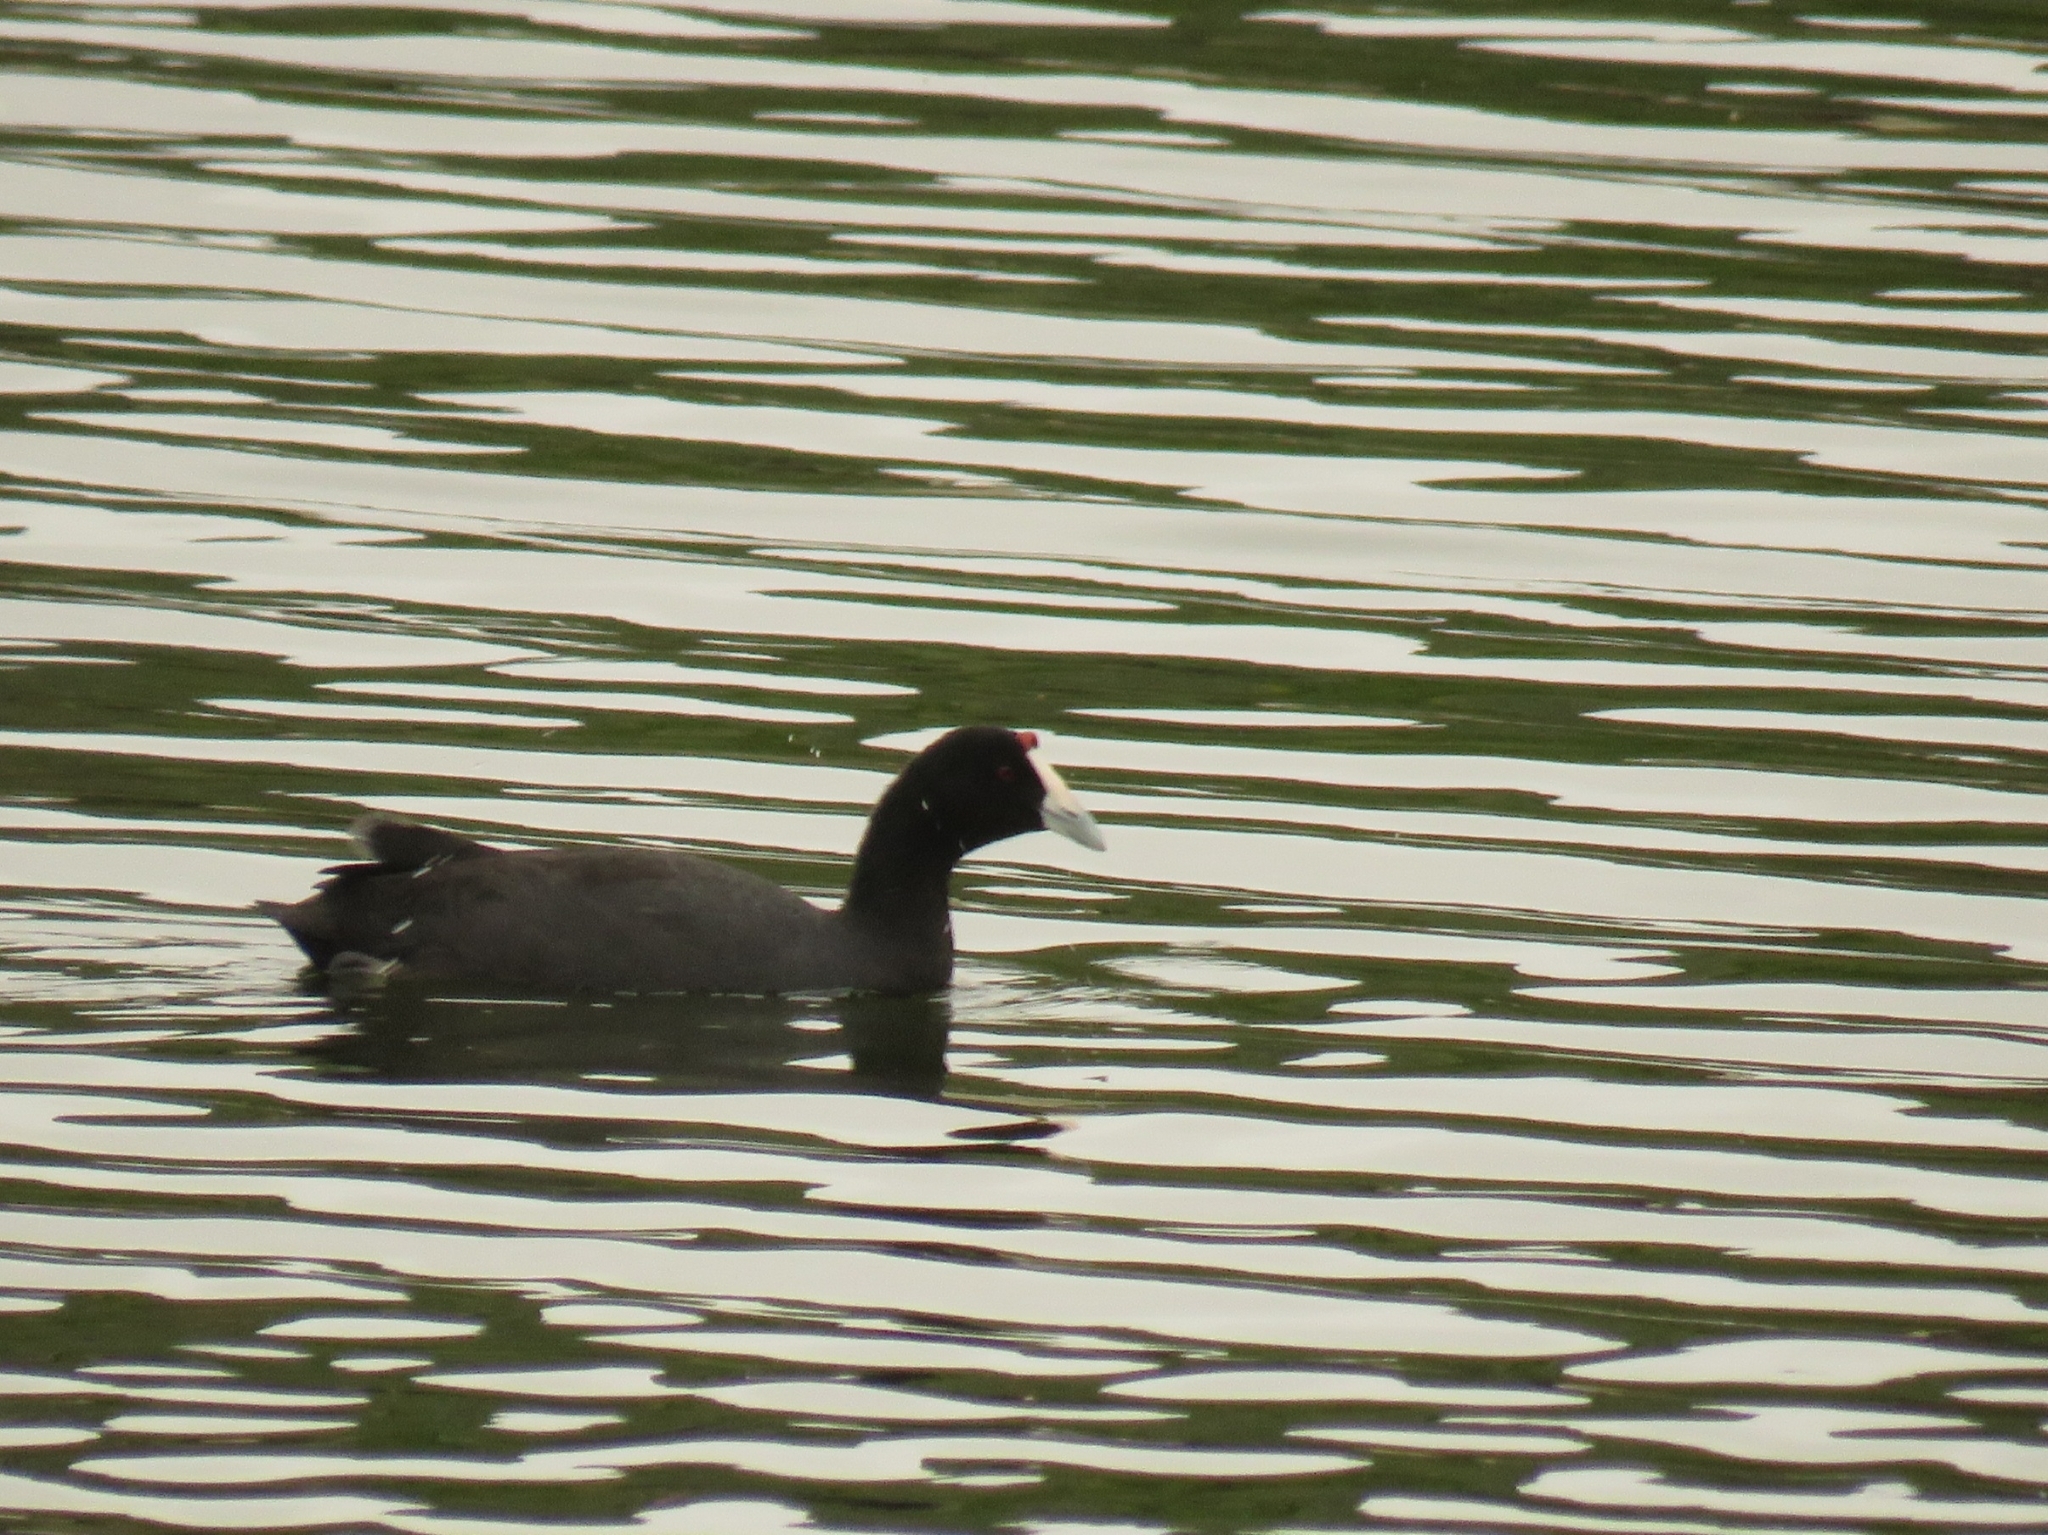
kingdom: Animalia
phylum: Chordata
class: Aves
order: Gruiformes
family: Rallidae
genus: Fulica
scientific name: Fulica cristata
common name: Red-knobbed coot
